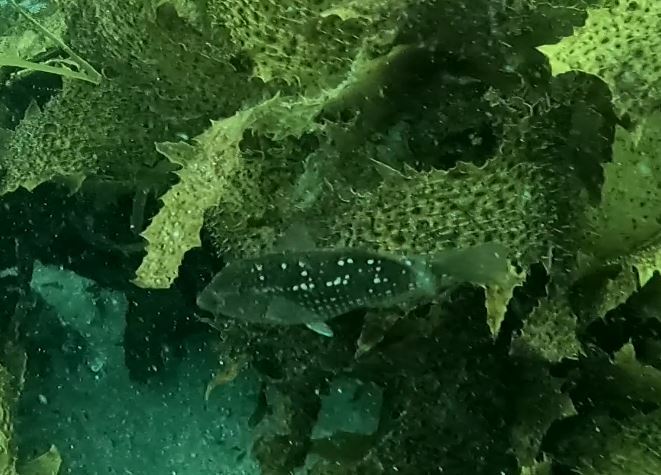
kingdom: Animalia
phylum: Chordata
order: Perciformes
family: Labridae
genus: Notolabrus
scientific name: Notolabrus gymnogenis
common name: Crimson banded wrasse
